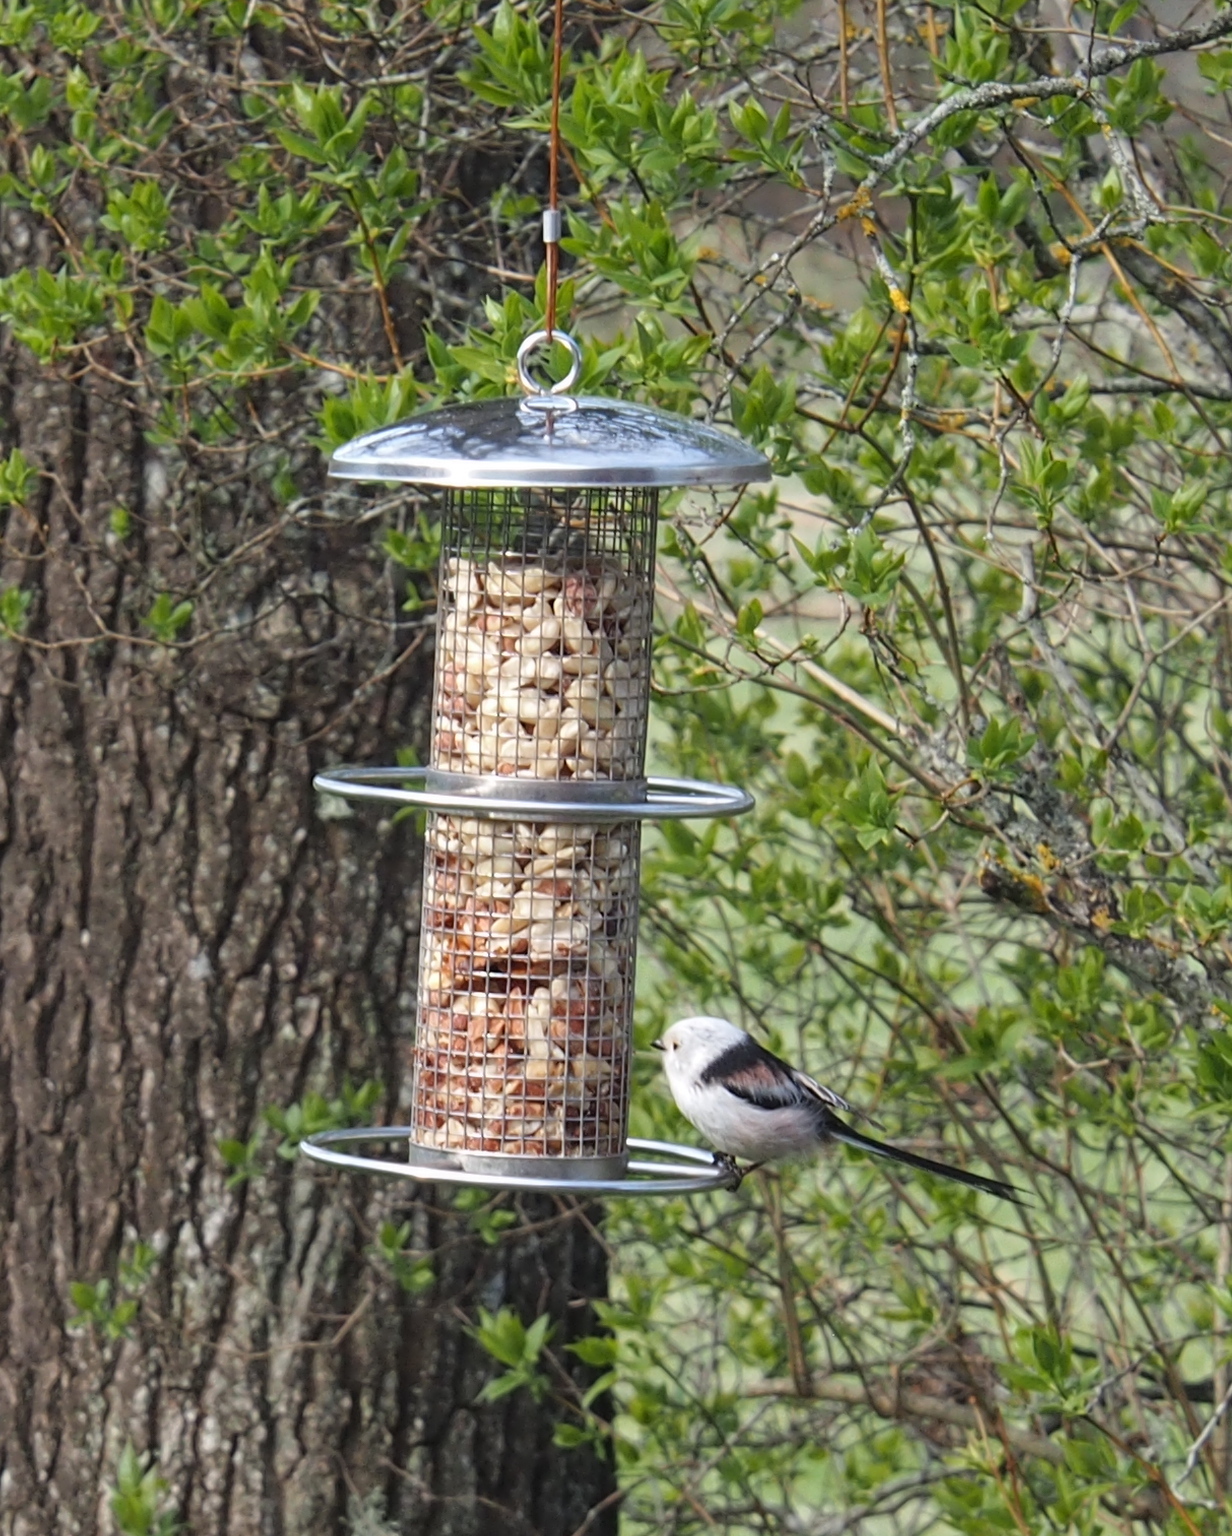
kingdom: Animalia
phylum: Chordata
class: Aves
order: Passeriformes
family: Aegithalidae
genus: Aegithalos
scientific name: Aegithalos caudatus
